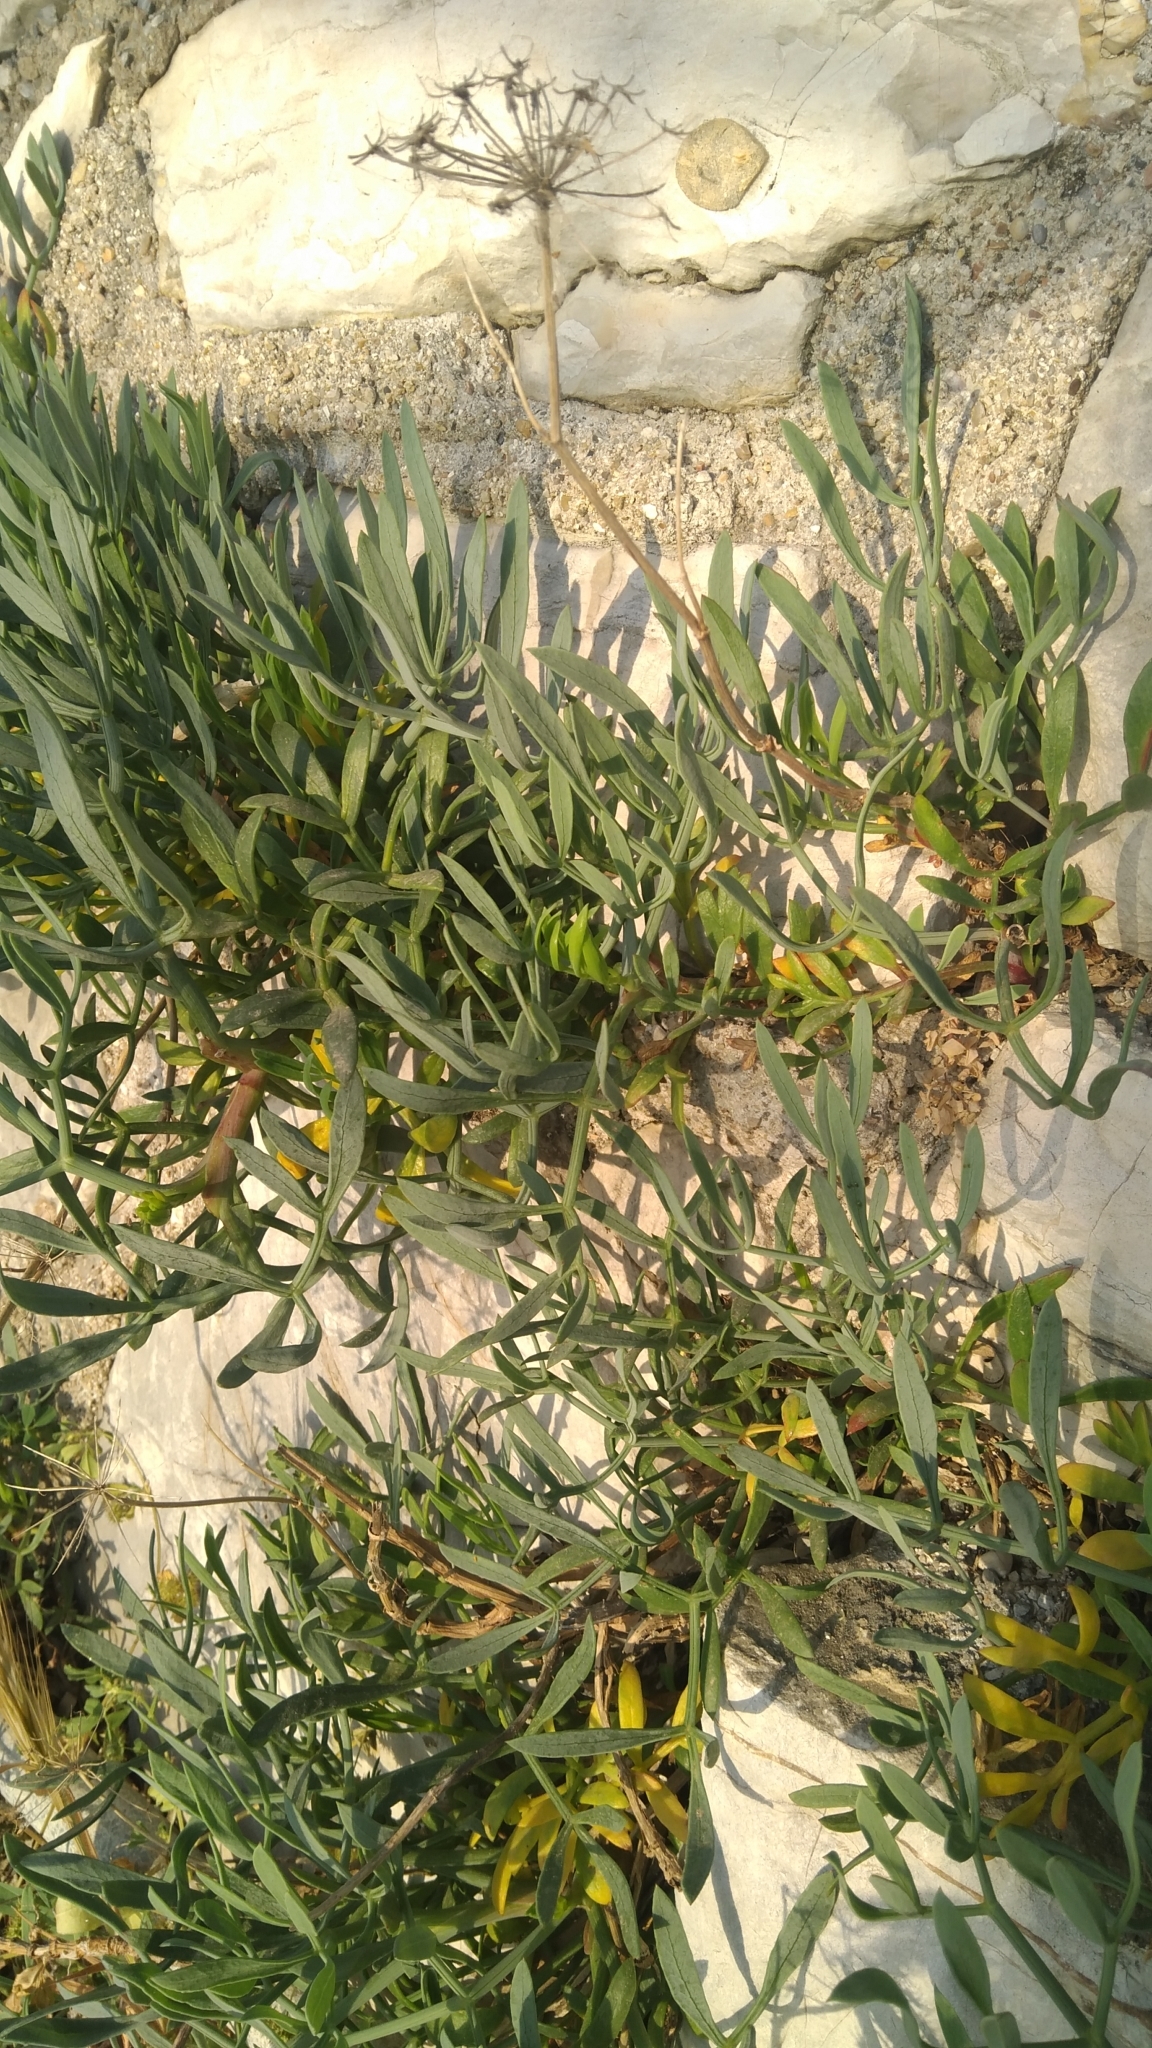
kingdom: Plantae
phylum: Tracheophyta
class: Magnoliopsida
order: Apiales
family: Apiaceae
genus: Crithmum
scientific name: Crithmum maritimum
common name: Rock samphire
